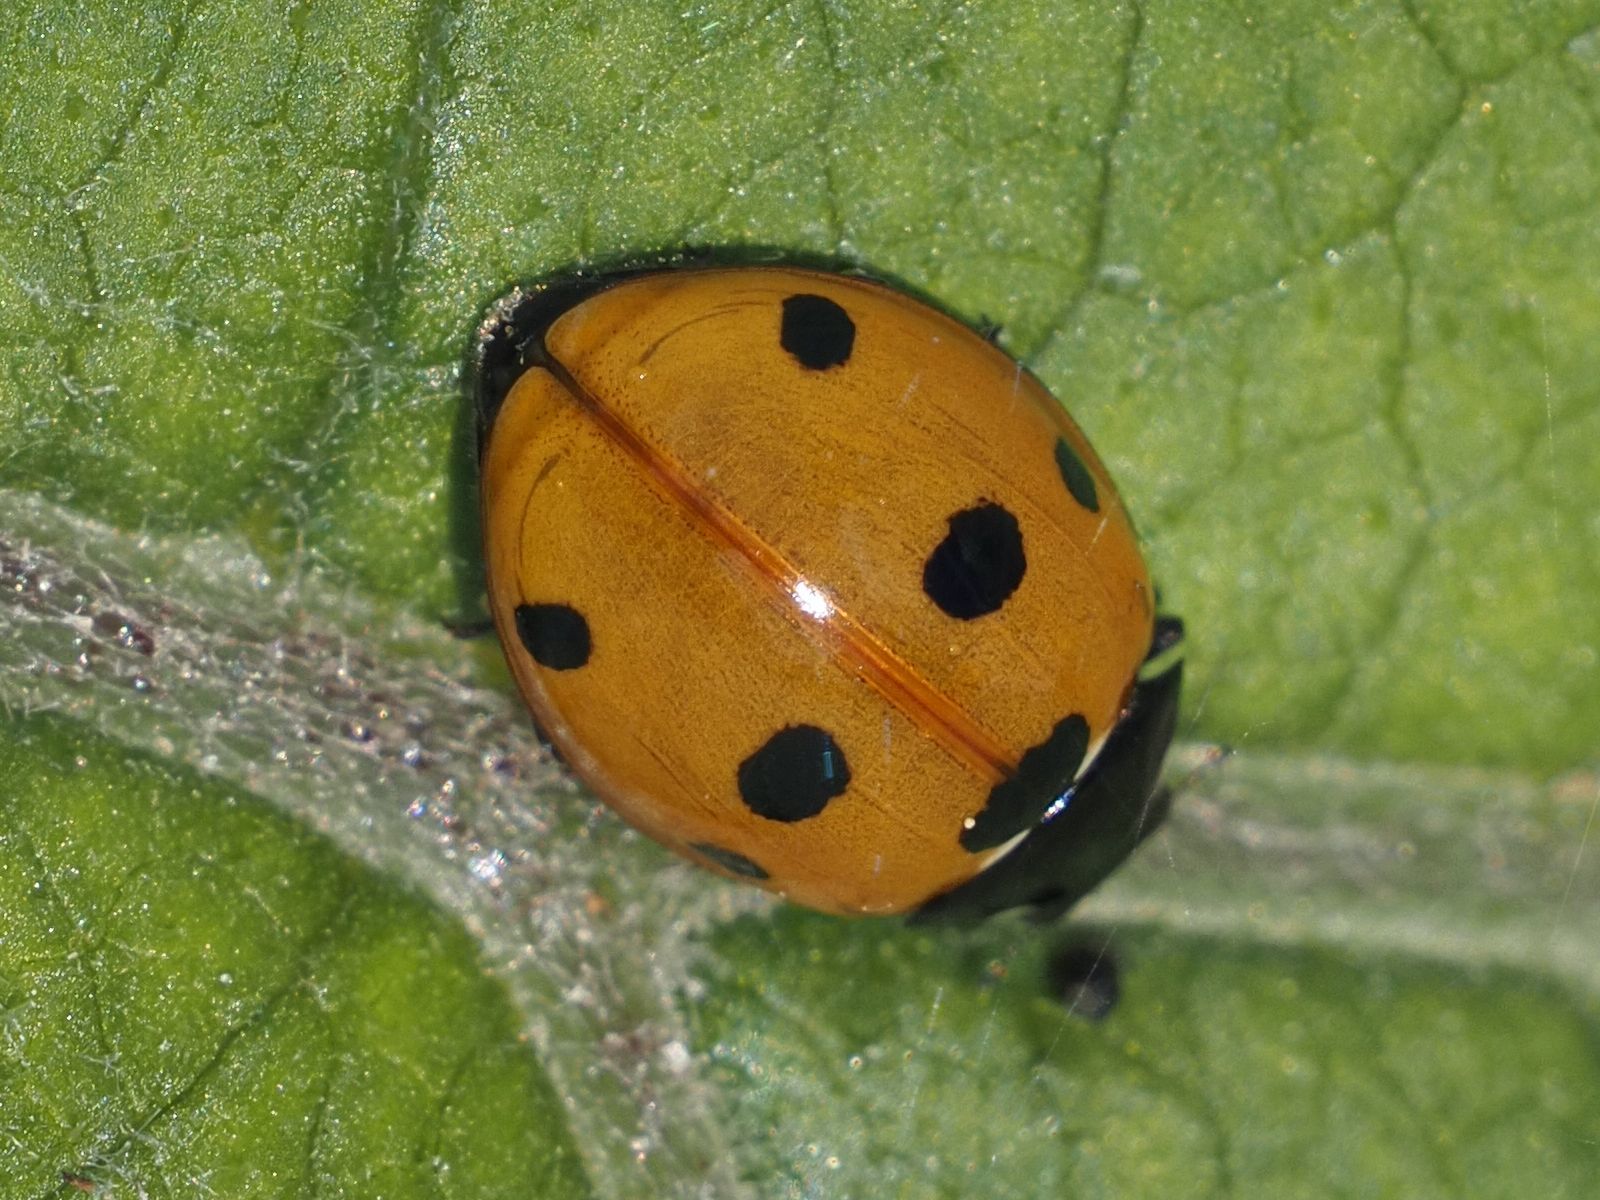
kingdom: Animalia
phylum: Arthropoda
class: Insecta
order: Coleoptera
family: Coccinellidae
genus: Coccinella
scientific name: Coccinella septempunctata
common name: Sevenspotted lady beetle
